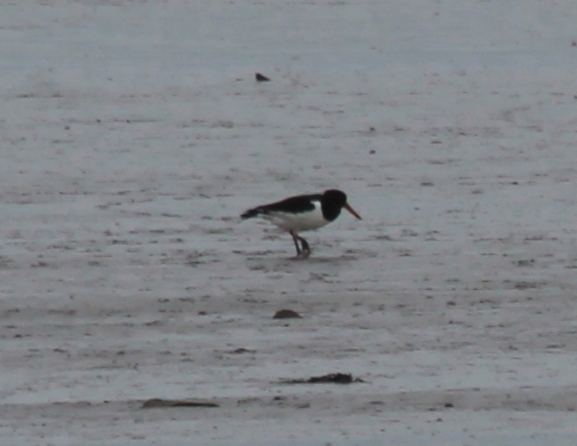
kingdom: Animalia
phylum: Chordata
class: Aves
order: Charadriiformes
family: Haematopodidae
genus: Haematopus
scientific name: Haematopus ostralegus
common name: Eurasian oystercatcher
